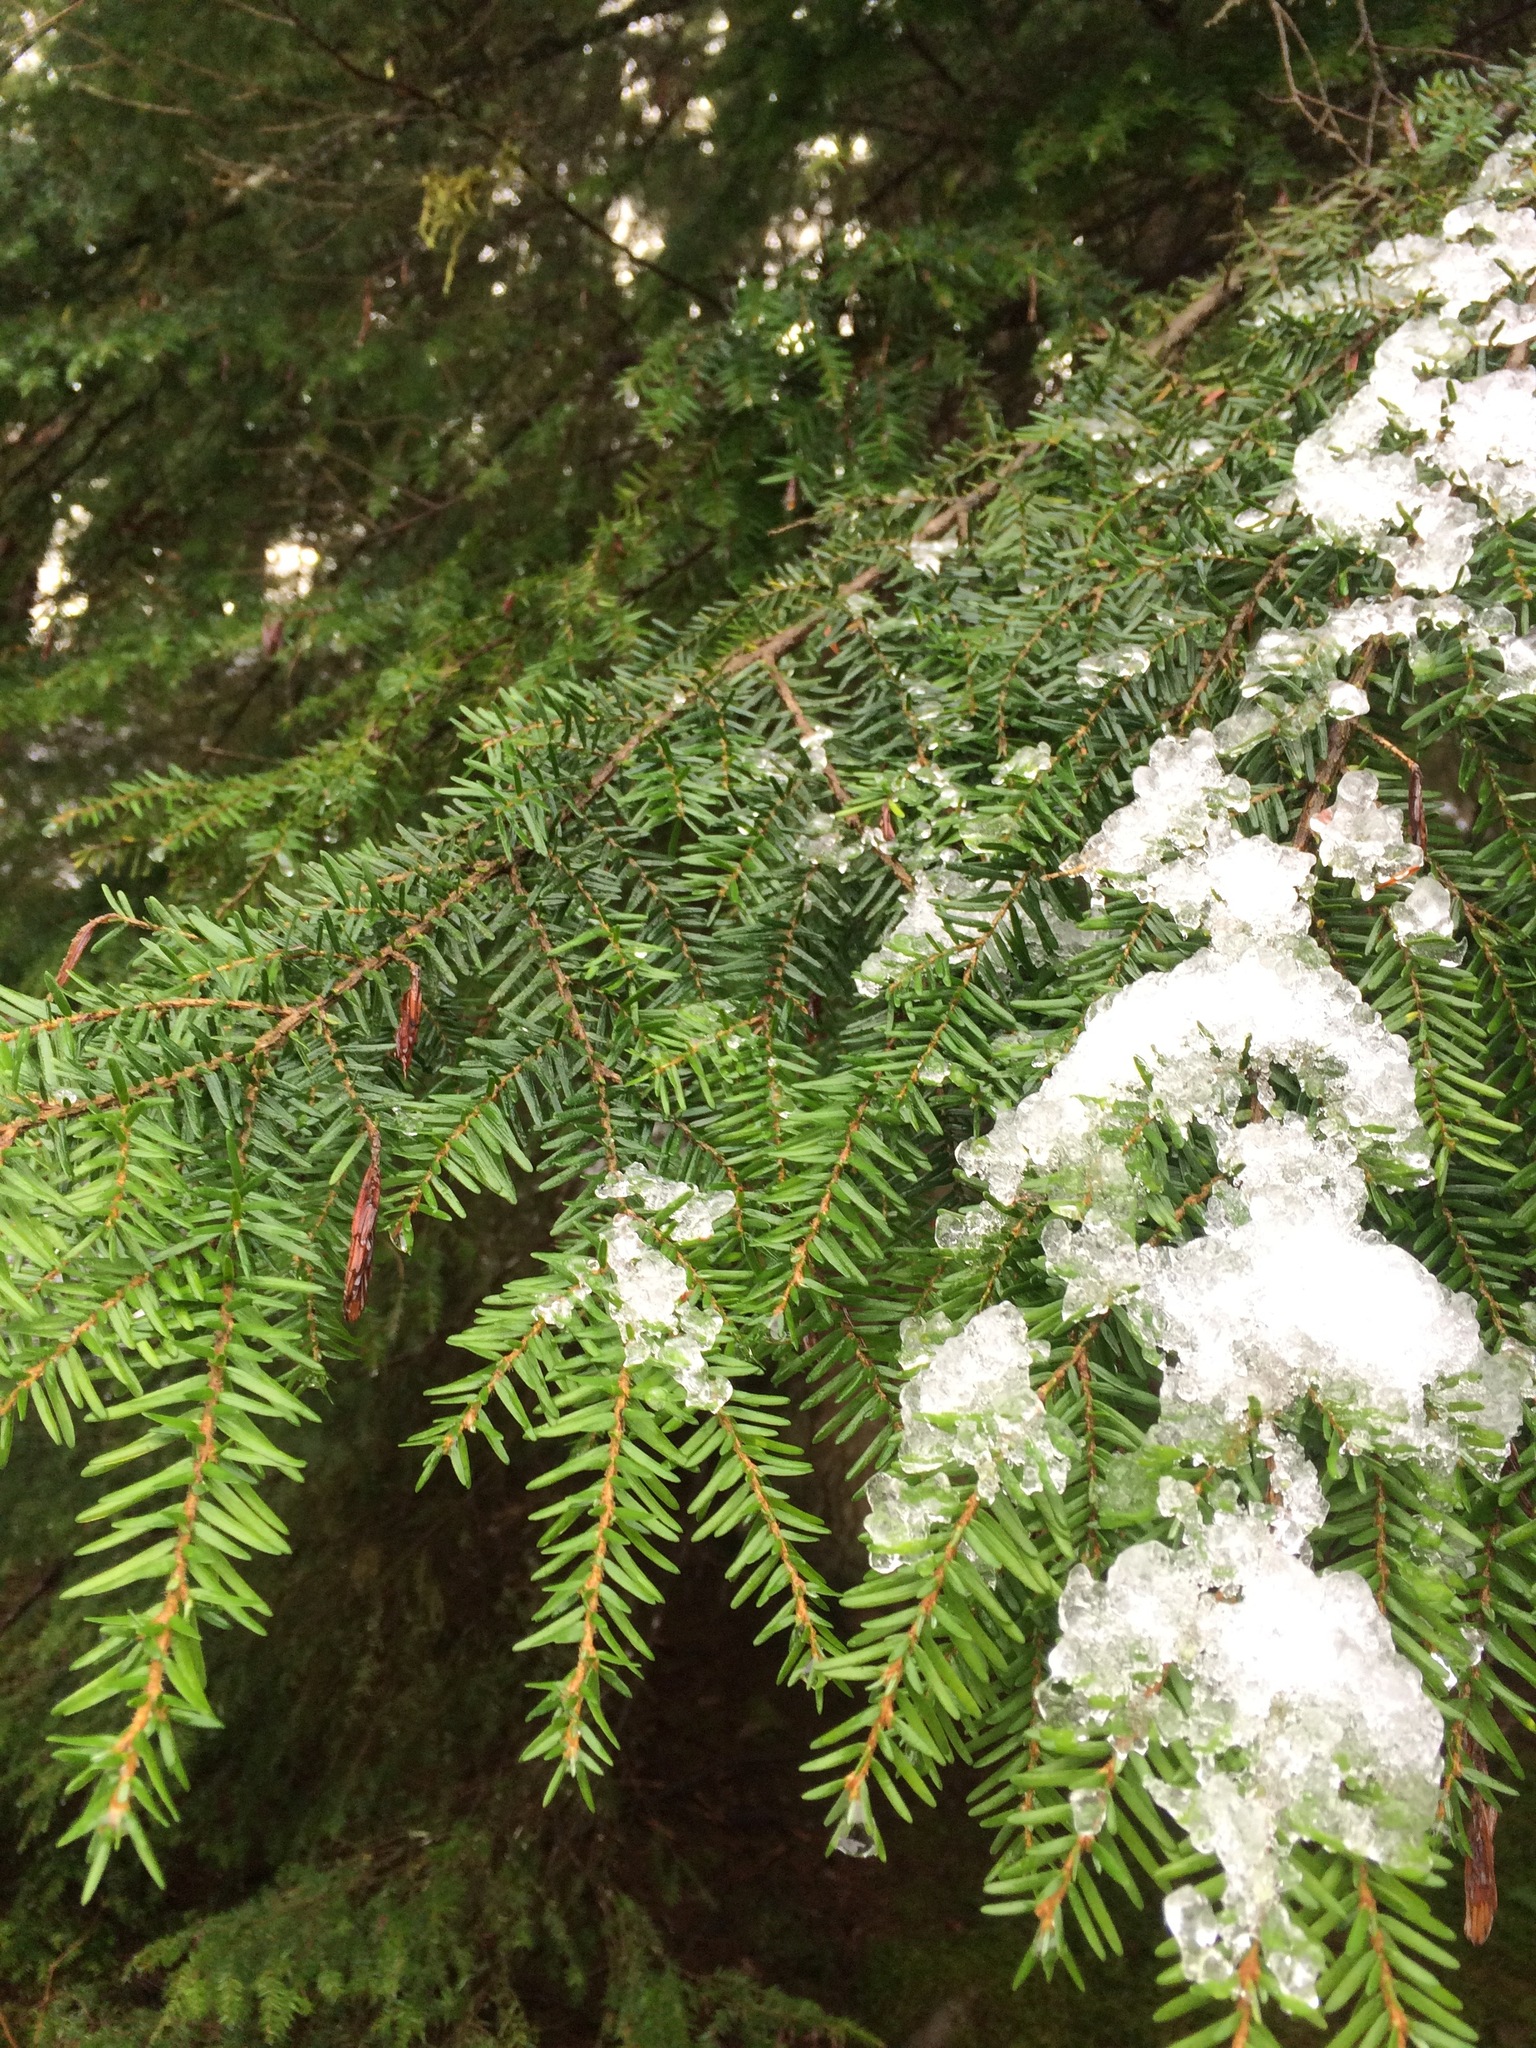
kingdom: Plantae
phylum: Tracheophyta
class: Pinopsida
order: Pinales
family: Pinaceae
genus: Tsuga
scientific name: Tsuga heterophylla
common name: Western hemlock
